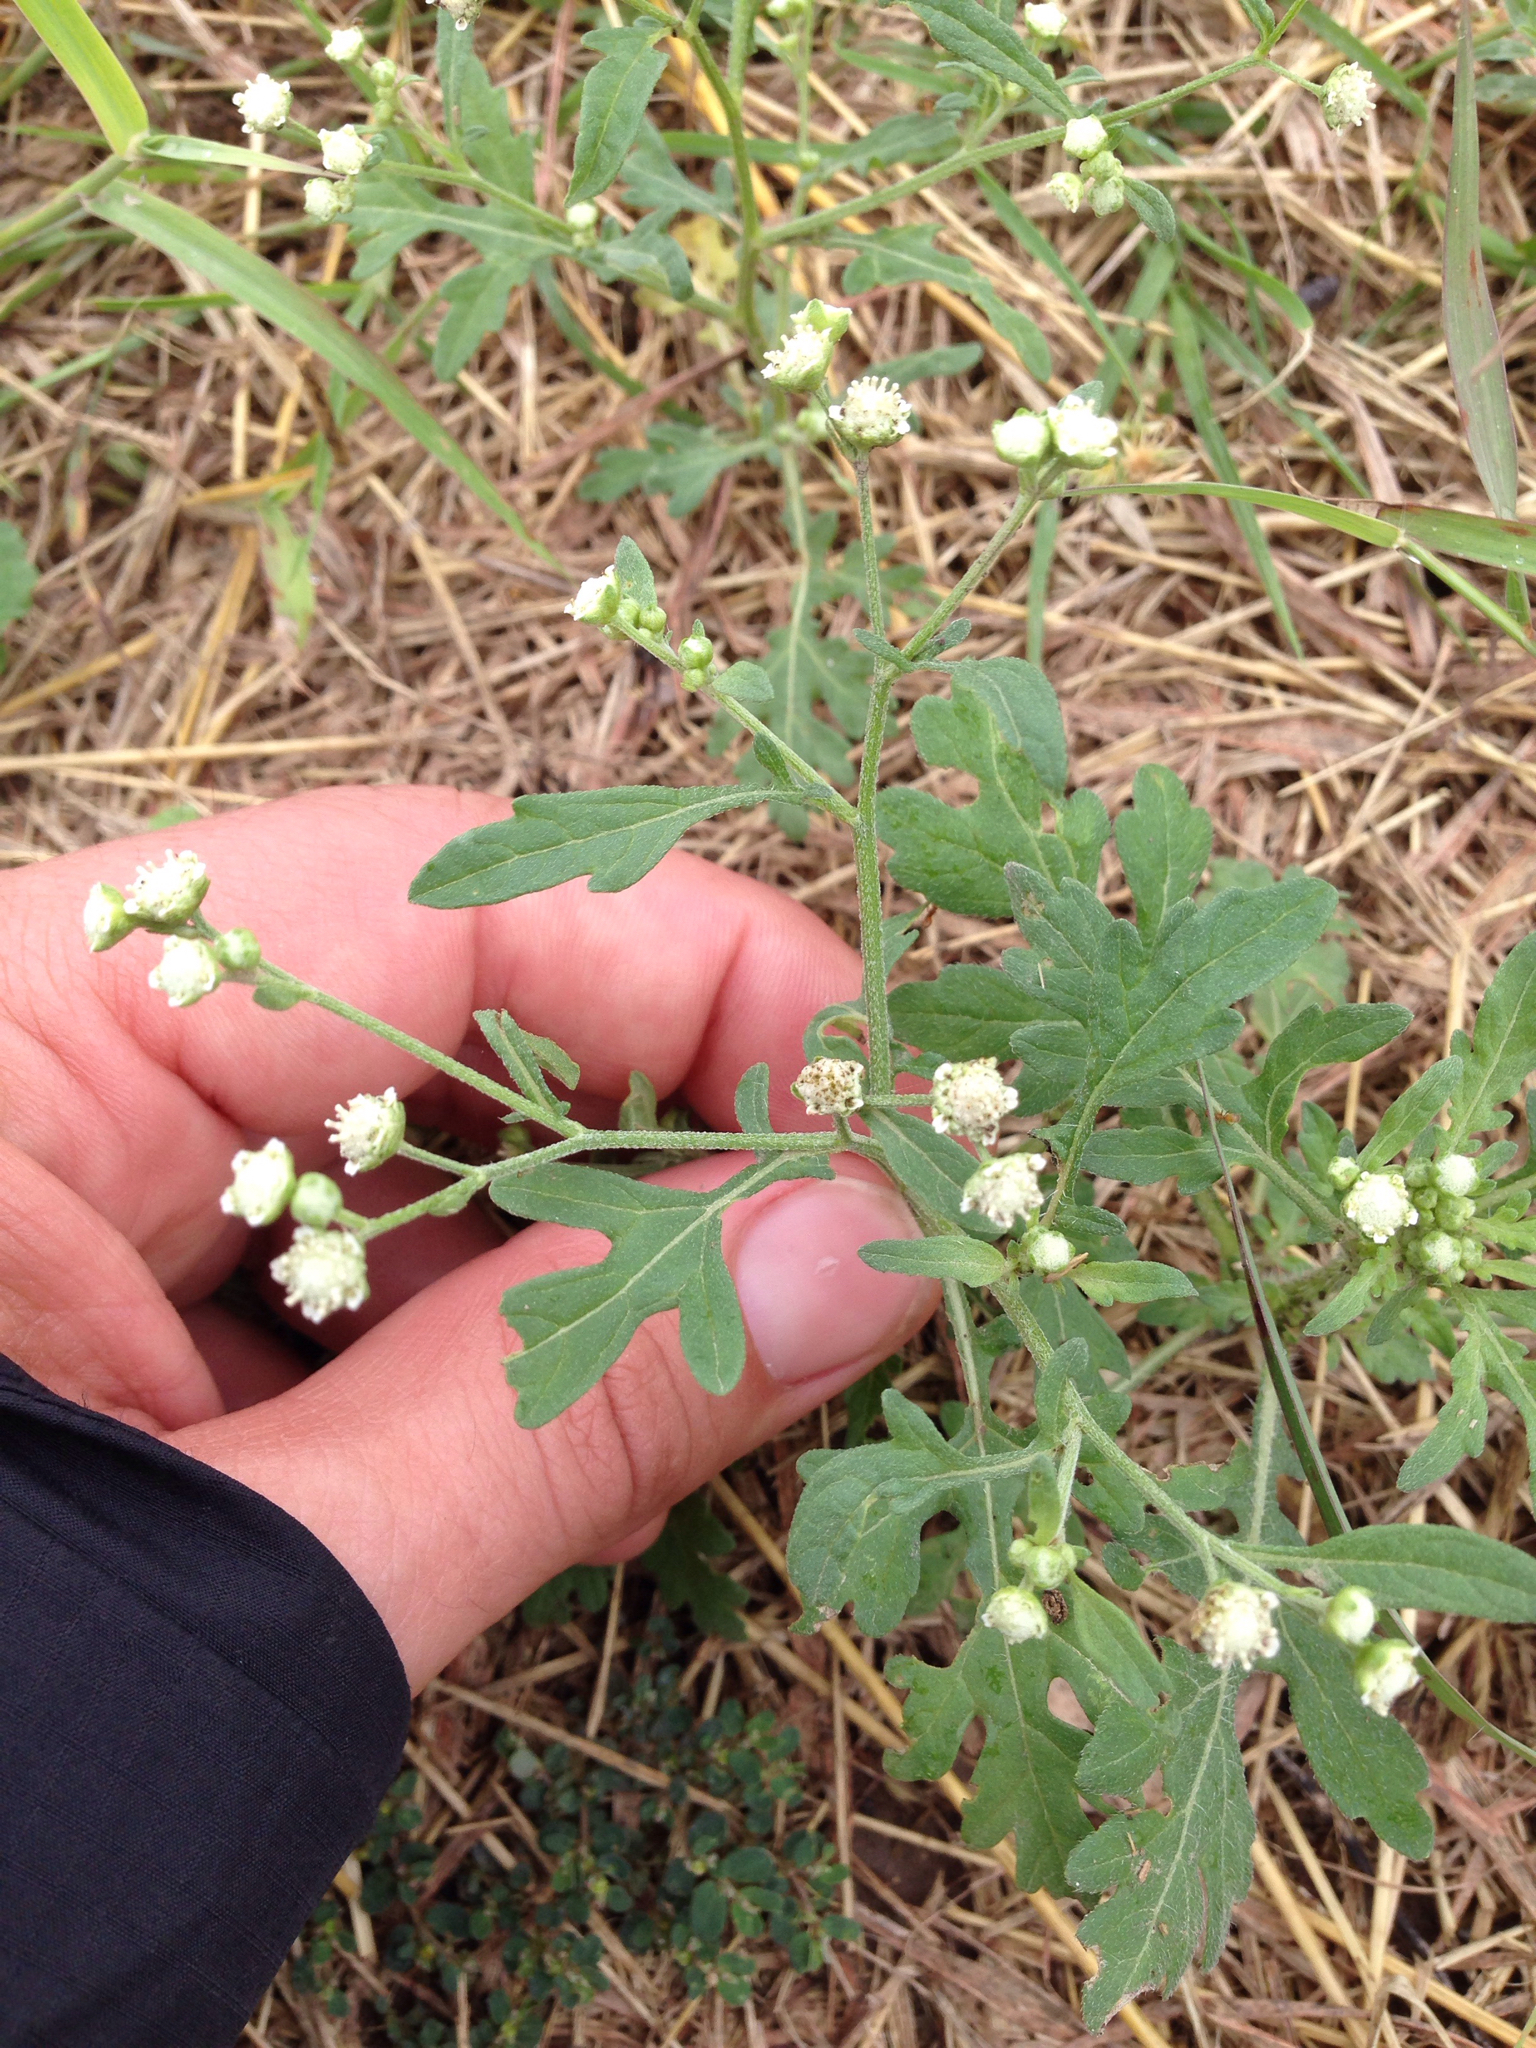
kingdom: Plantae
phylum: Tracheophyta
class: Magnoliopsida
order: Asterales
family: Asteraceae
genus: Parthenium
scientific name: Parthenium hysterophorus
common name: Santa maria feverfew
